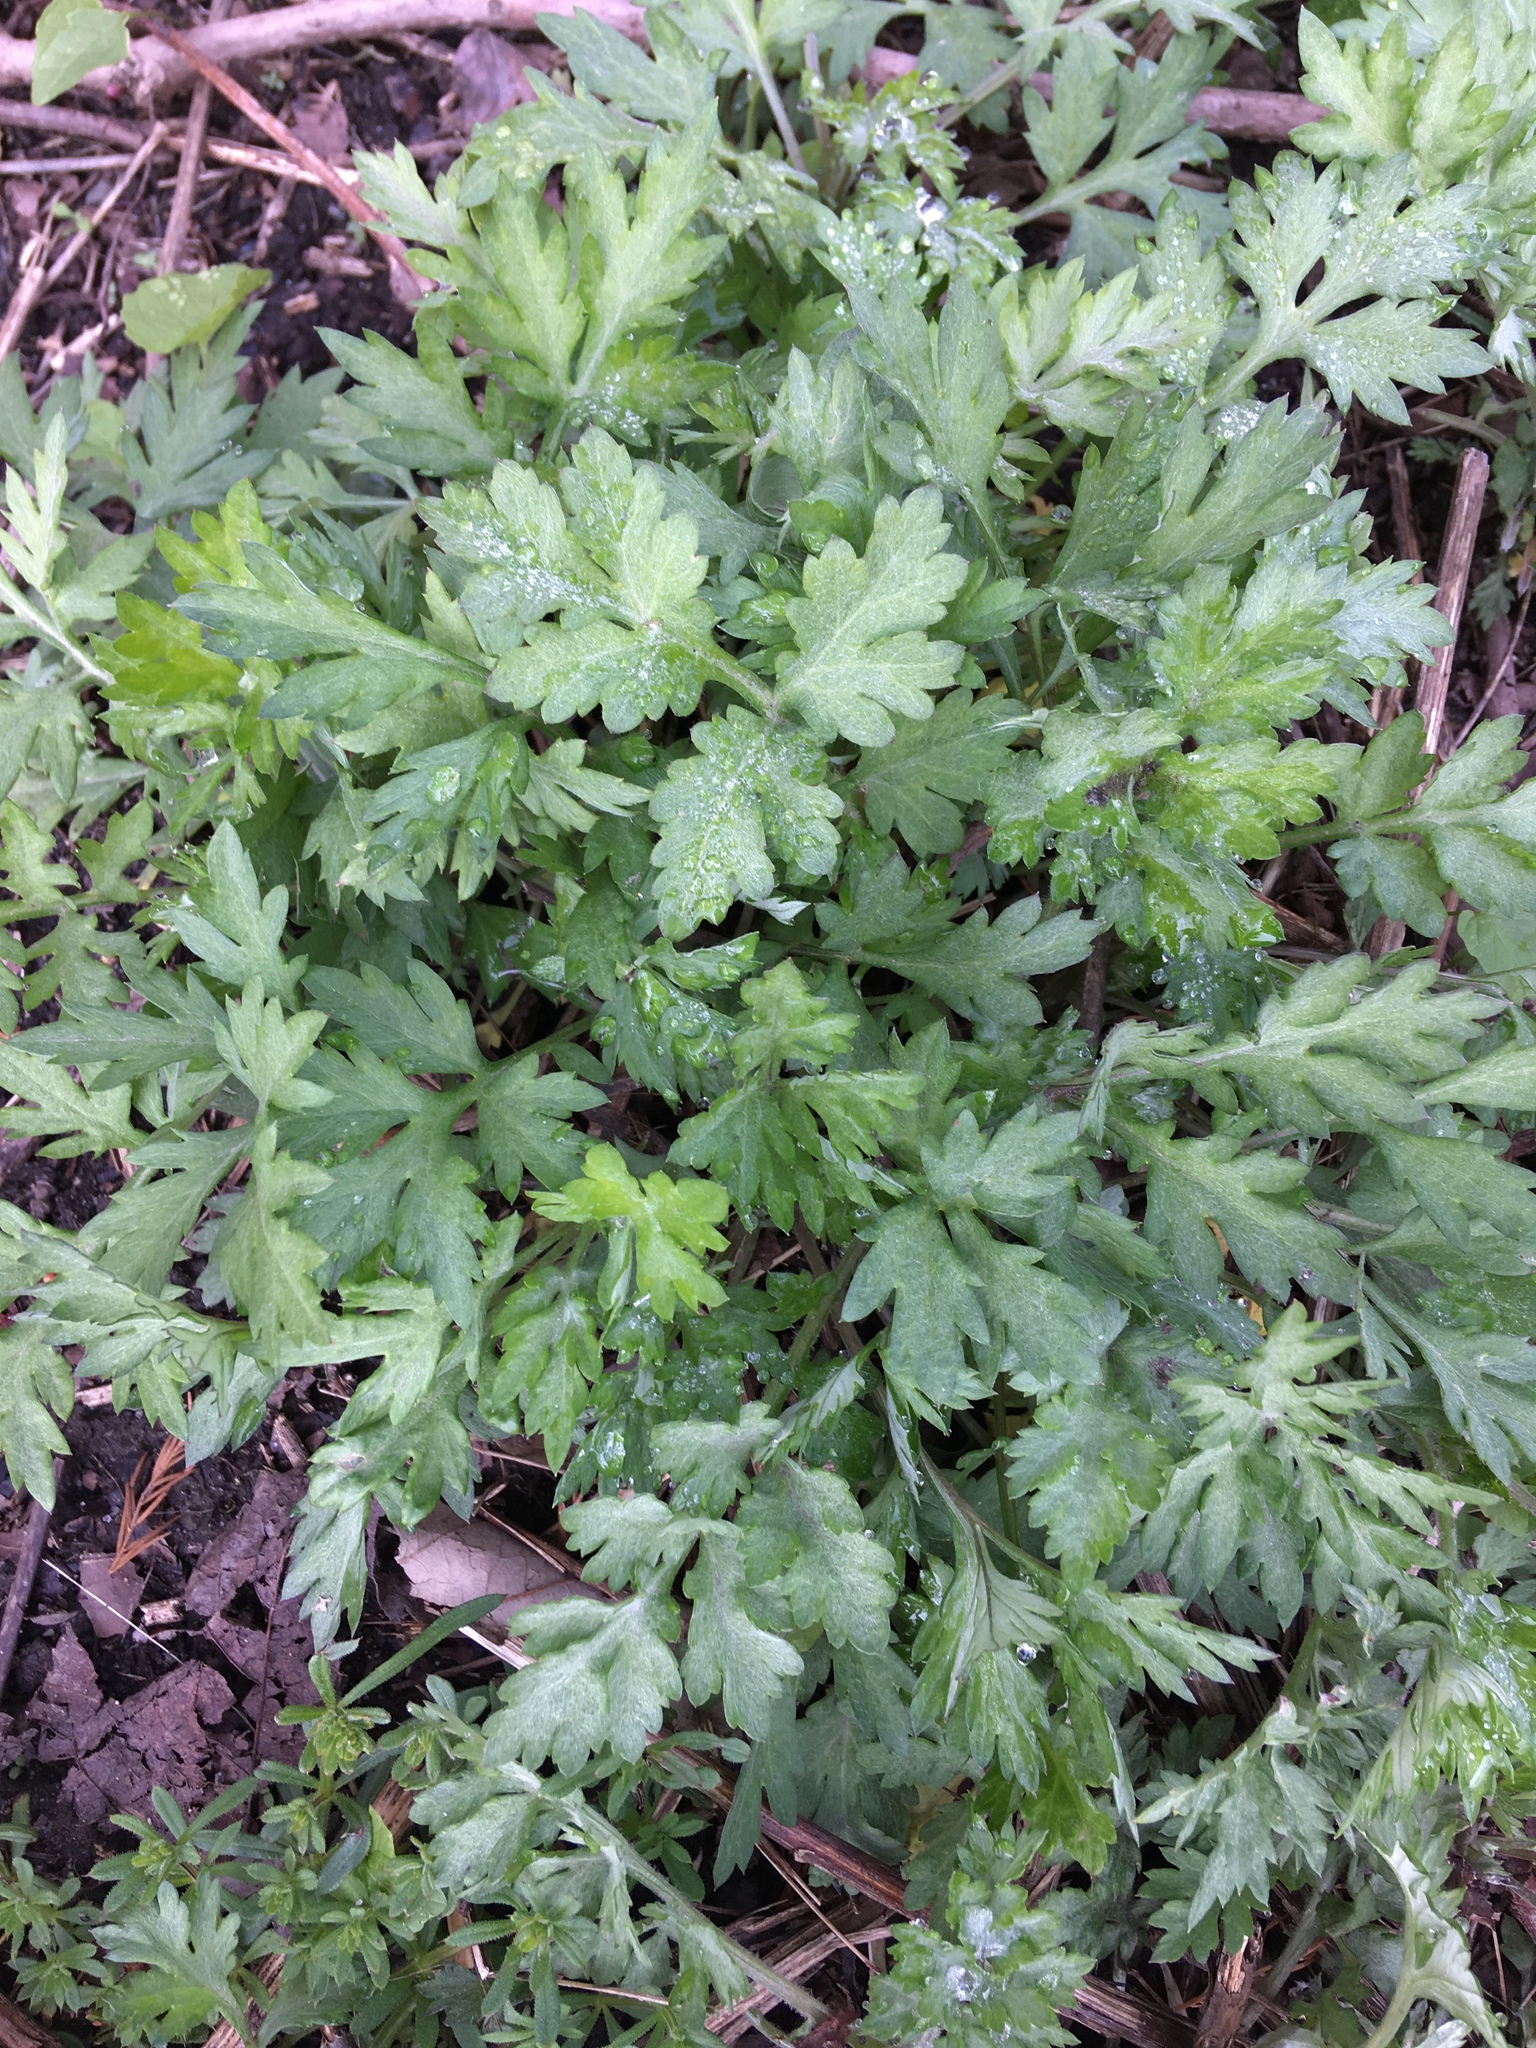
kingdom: Plantae
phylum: Tracheophyta
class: Magnoliopsida
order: Asterales
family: Asteraceae
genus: Artemisia
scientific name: Artemisia vulgaris
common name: Mugwort
